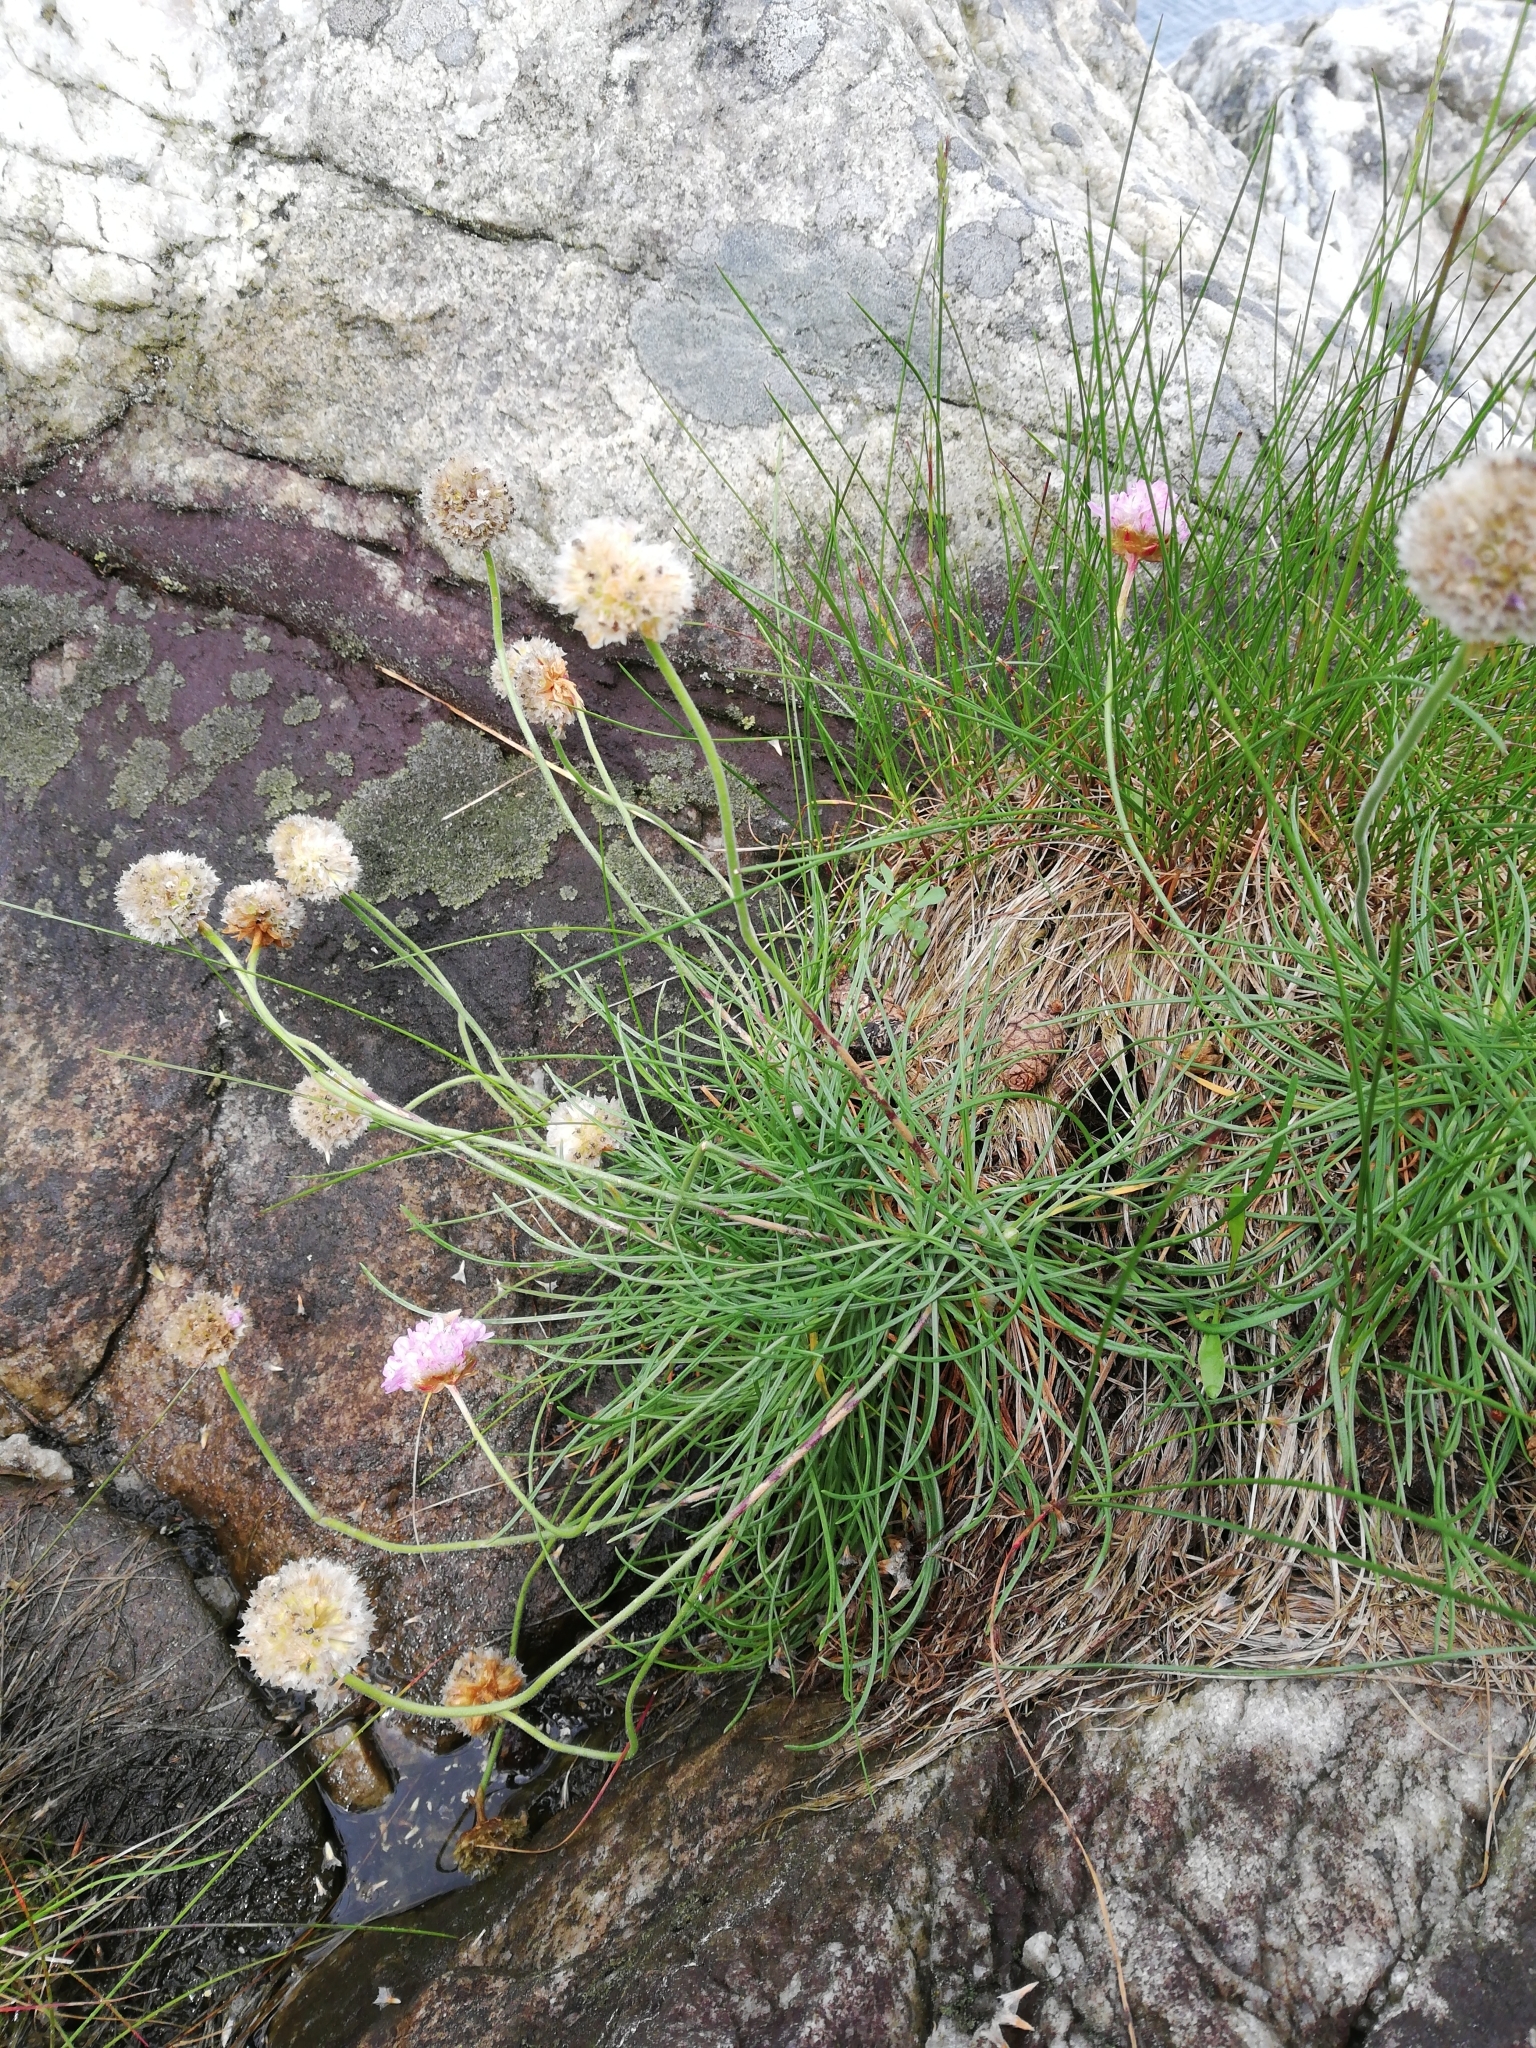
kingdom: Plantae
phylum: Tracheophyta
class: Magnoliopsida
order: Caryophyllales
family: Plumbaginaceae
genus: Armeria
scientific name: Armeria maritima
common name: Thrift
